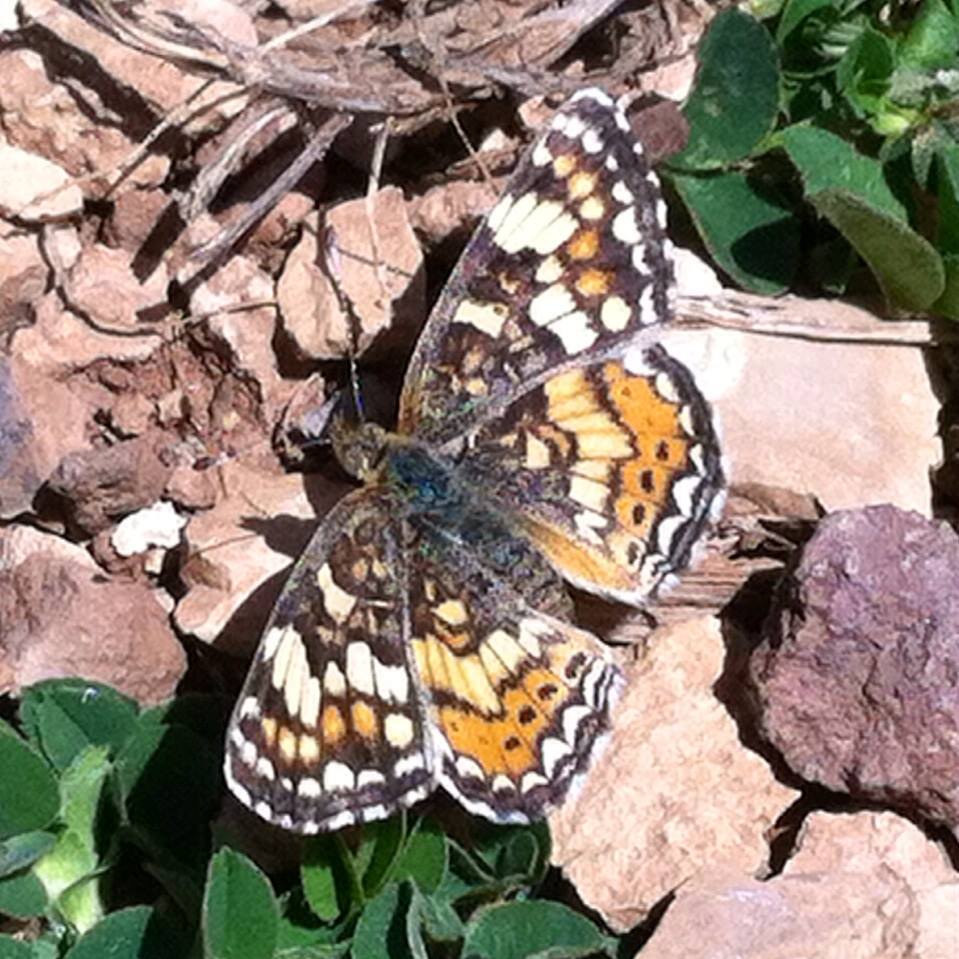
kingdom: Animalia
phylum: Arthropoda
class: Insecta
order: Lepidoptera
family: Nymphalidae
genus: Phyciodes
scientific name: Phyciodes tharos
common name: Pearl crescent
